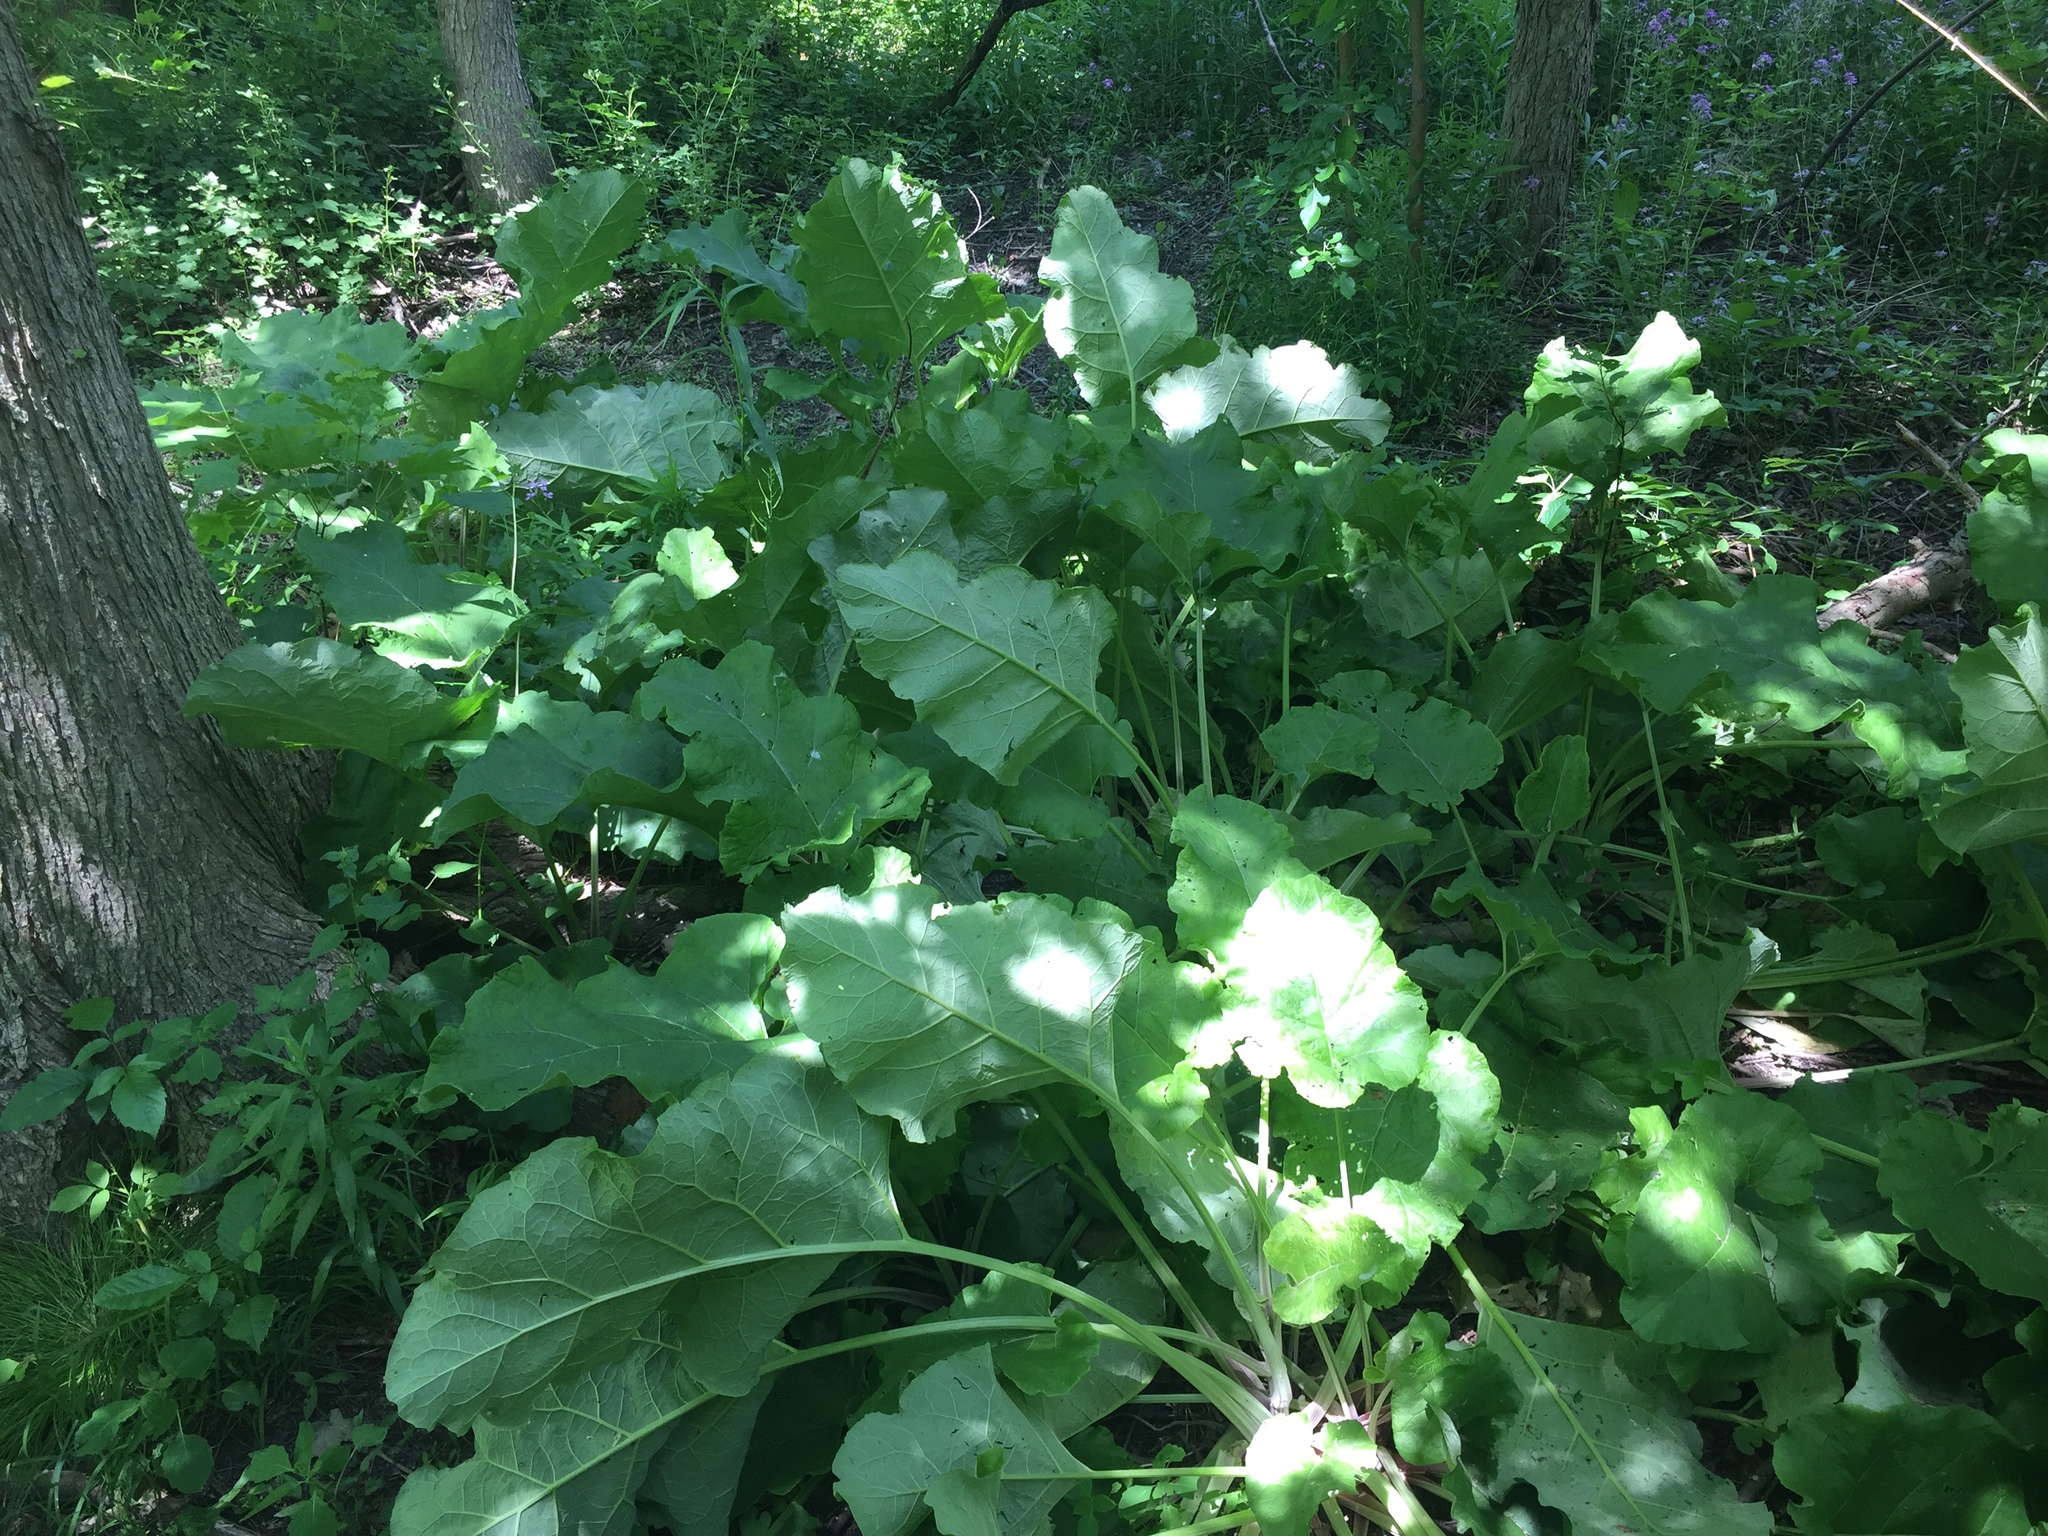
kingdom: Plantae
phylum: Tracheophyta
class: Magnoliopsida
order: Asterales
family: Asteraceae
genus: Arctium
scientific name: Arctium lappa
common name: Greater burdock
